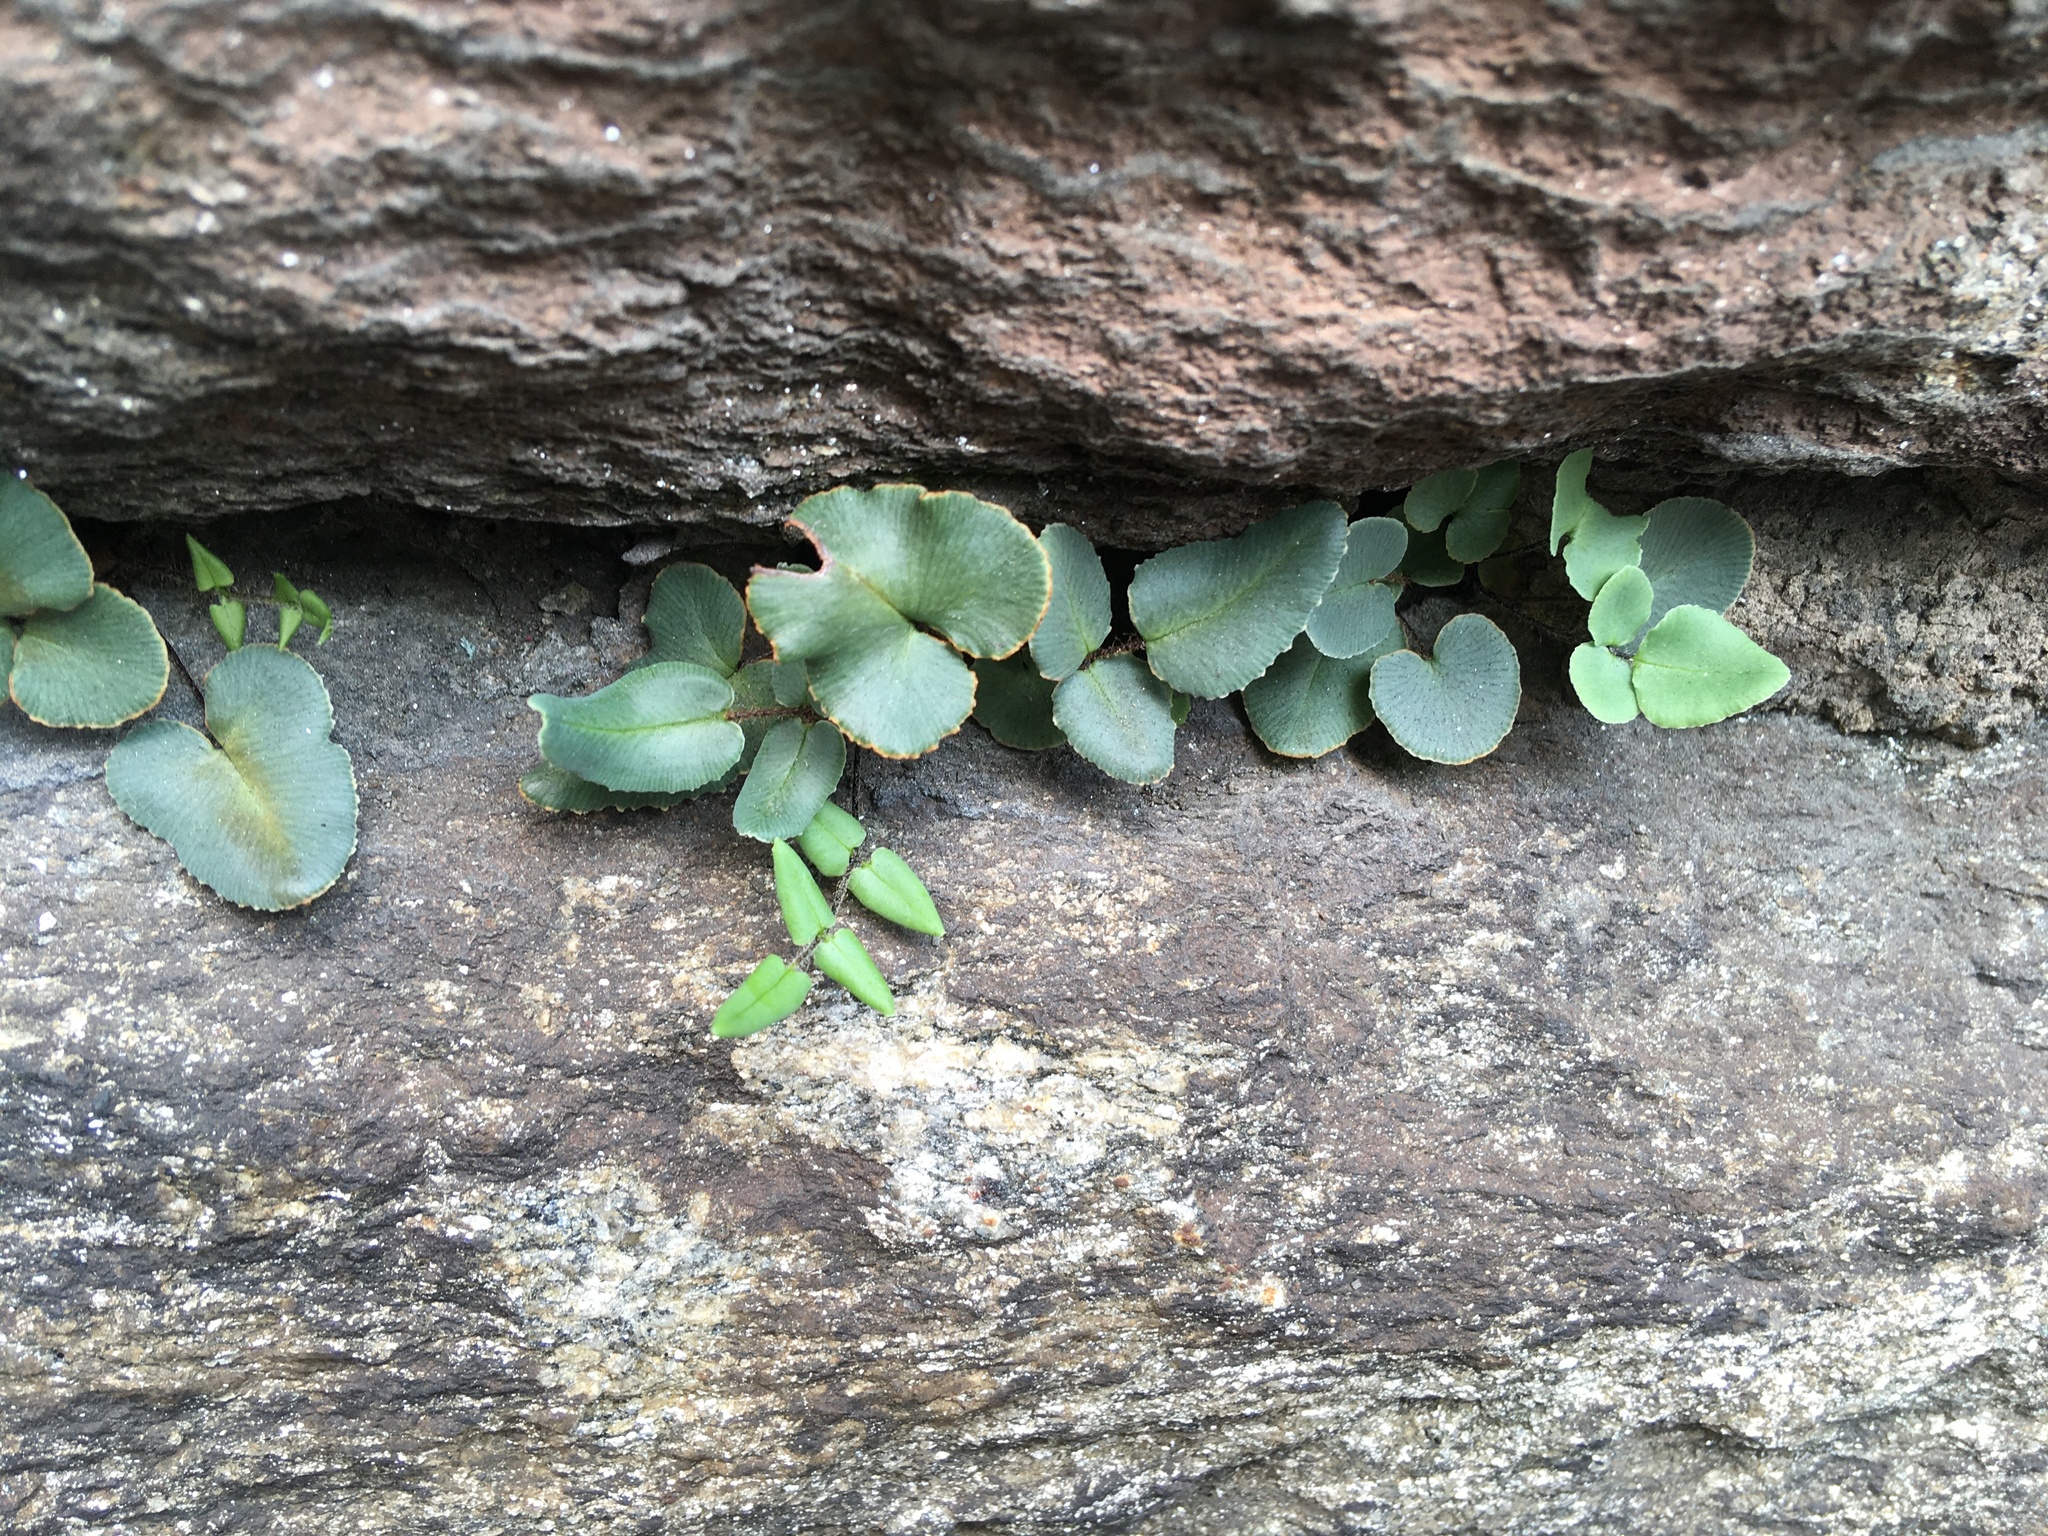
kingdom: Plantae
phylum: Tracheophyta
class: Polypodiopsida
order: Polypodiales
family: Pteridaceae
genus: Pellaea
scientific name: Pellaea atropurpurea
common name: Hairy cliffbrake
